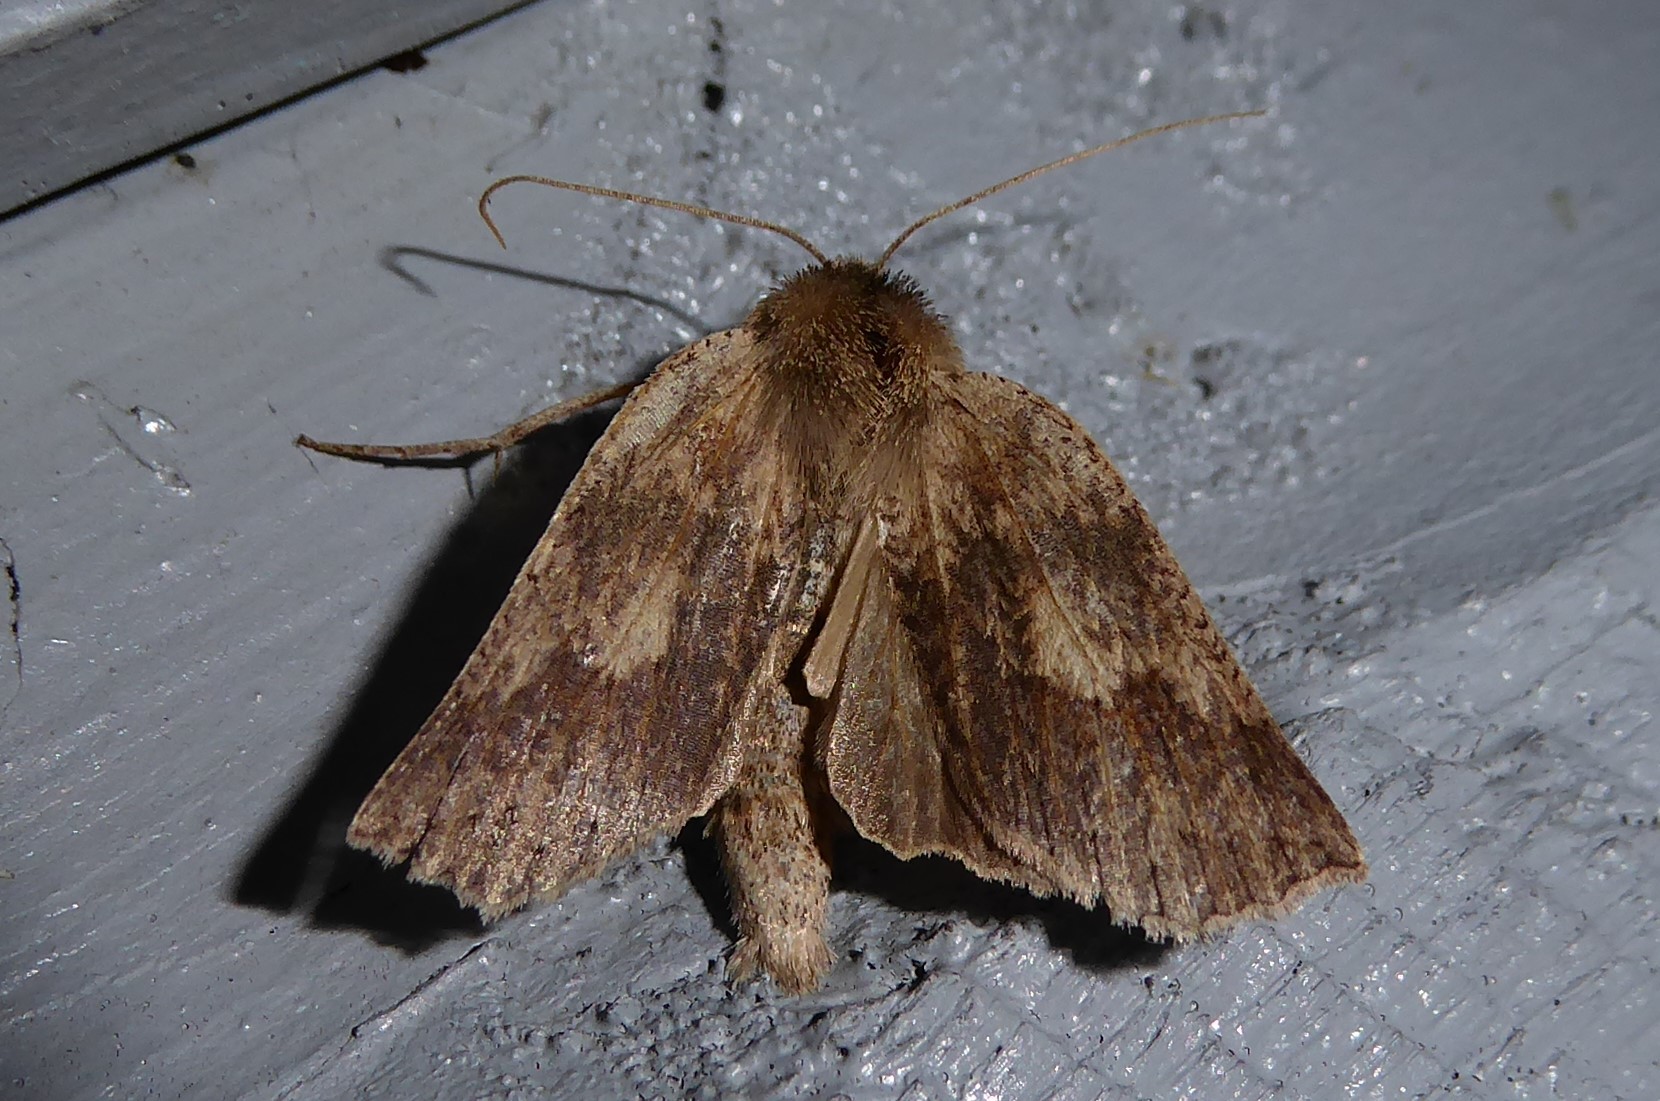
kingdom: Animalia
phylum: Arthropoda
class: Insecta
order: Lepidoptera
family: Geometridae
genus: Declana
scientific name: Declana leptomera
